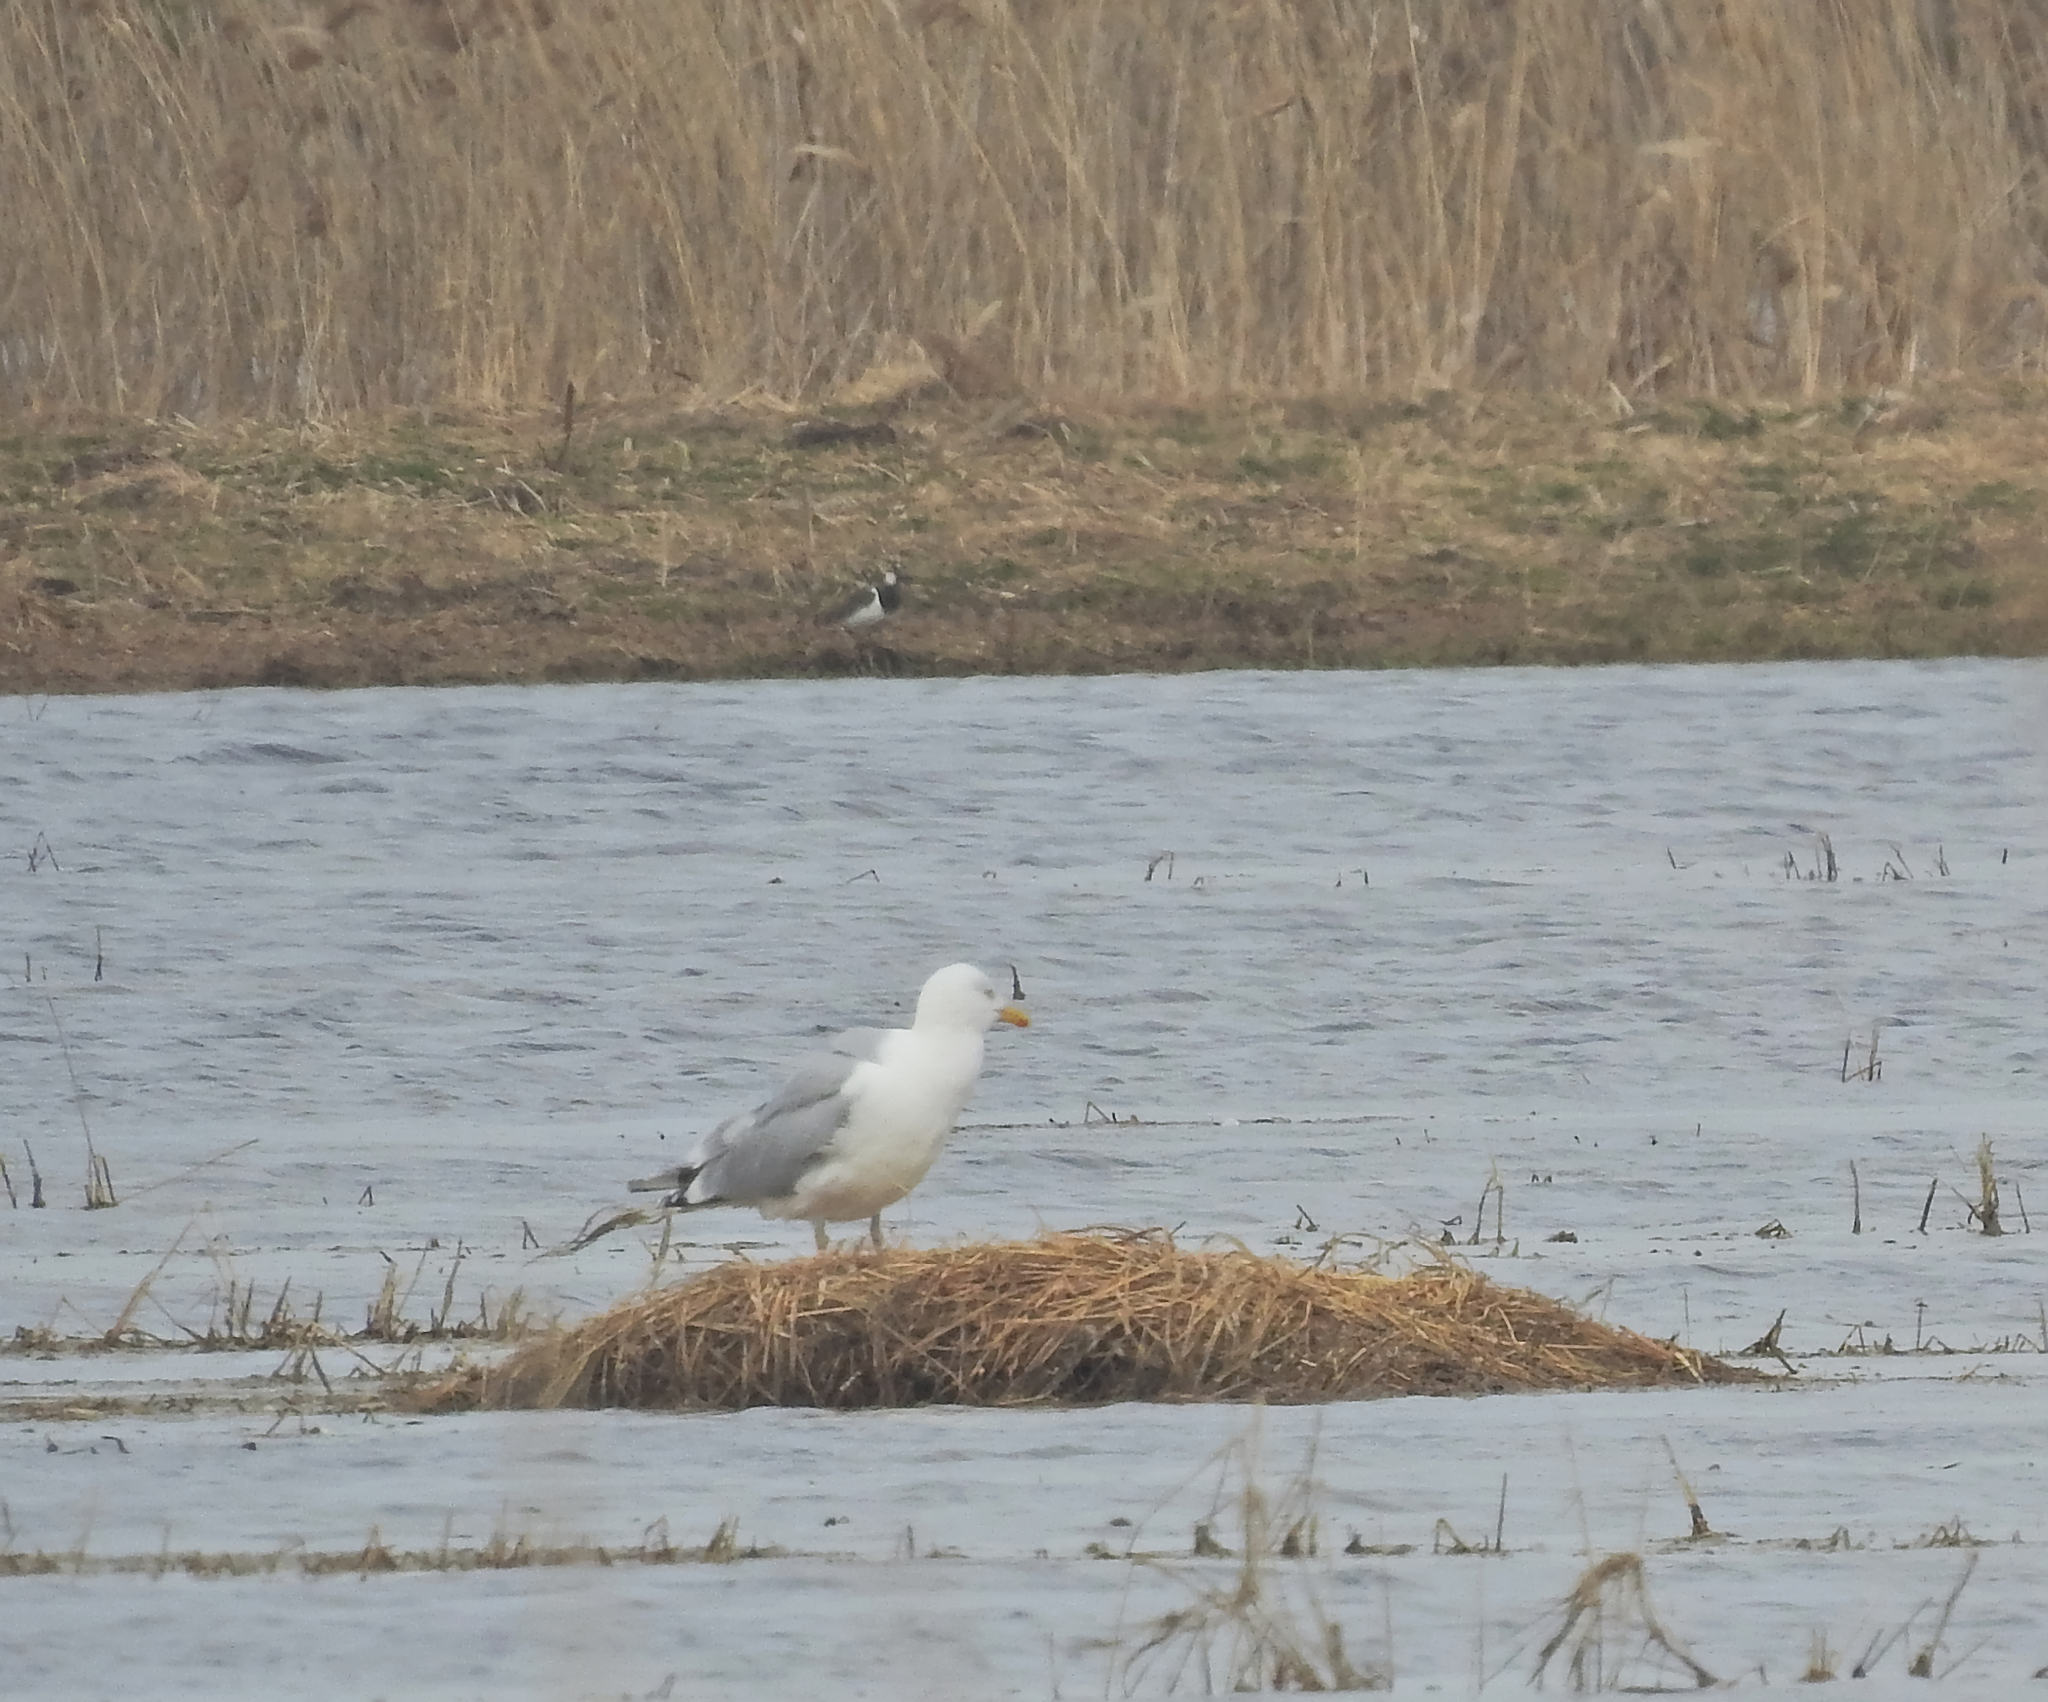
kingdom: Animalia
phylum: Chordata
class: Aves
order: Charadriiformes
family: Laridae
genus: Larus
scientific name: Larus argentatus
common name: Herring gull
